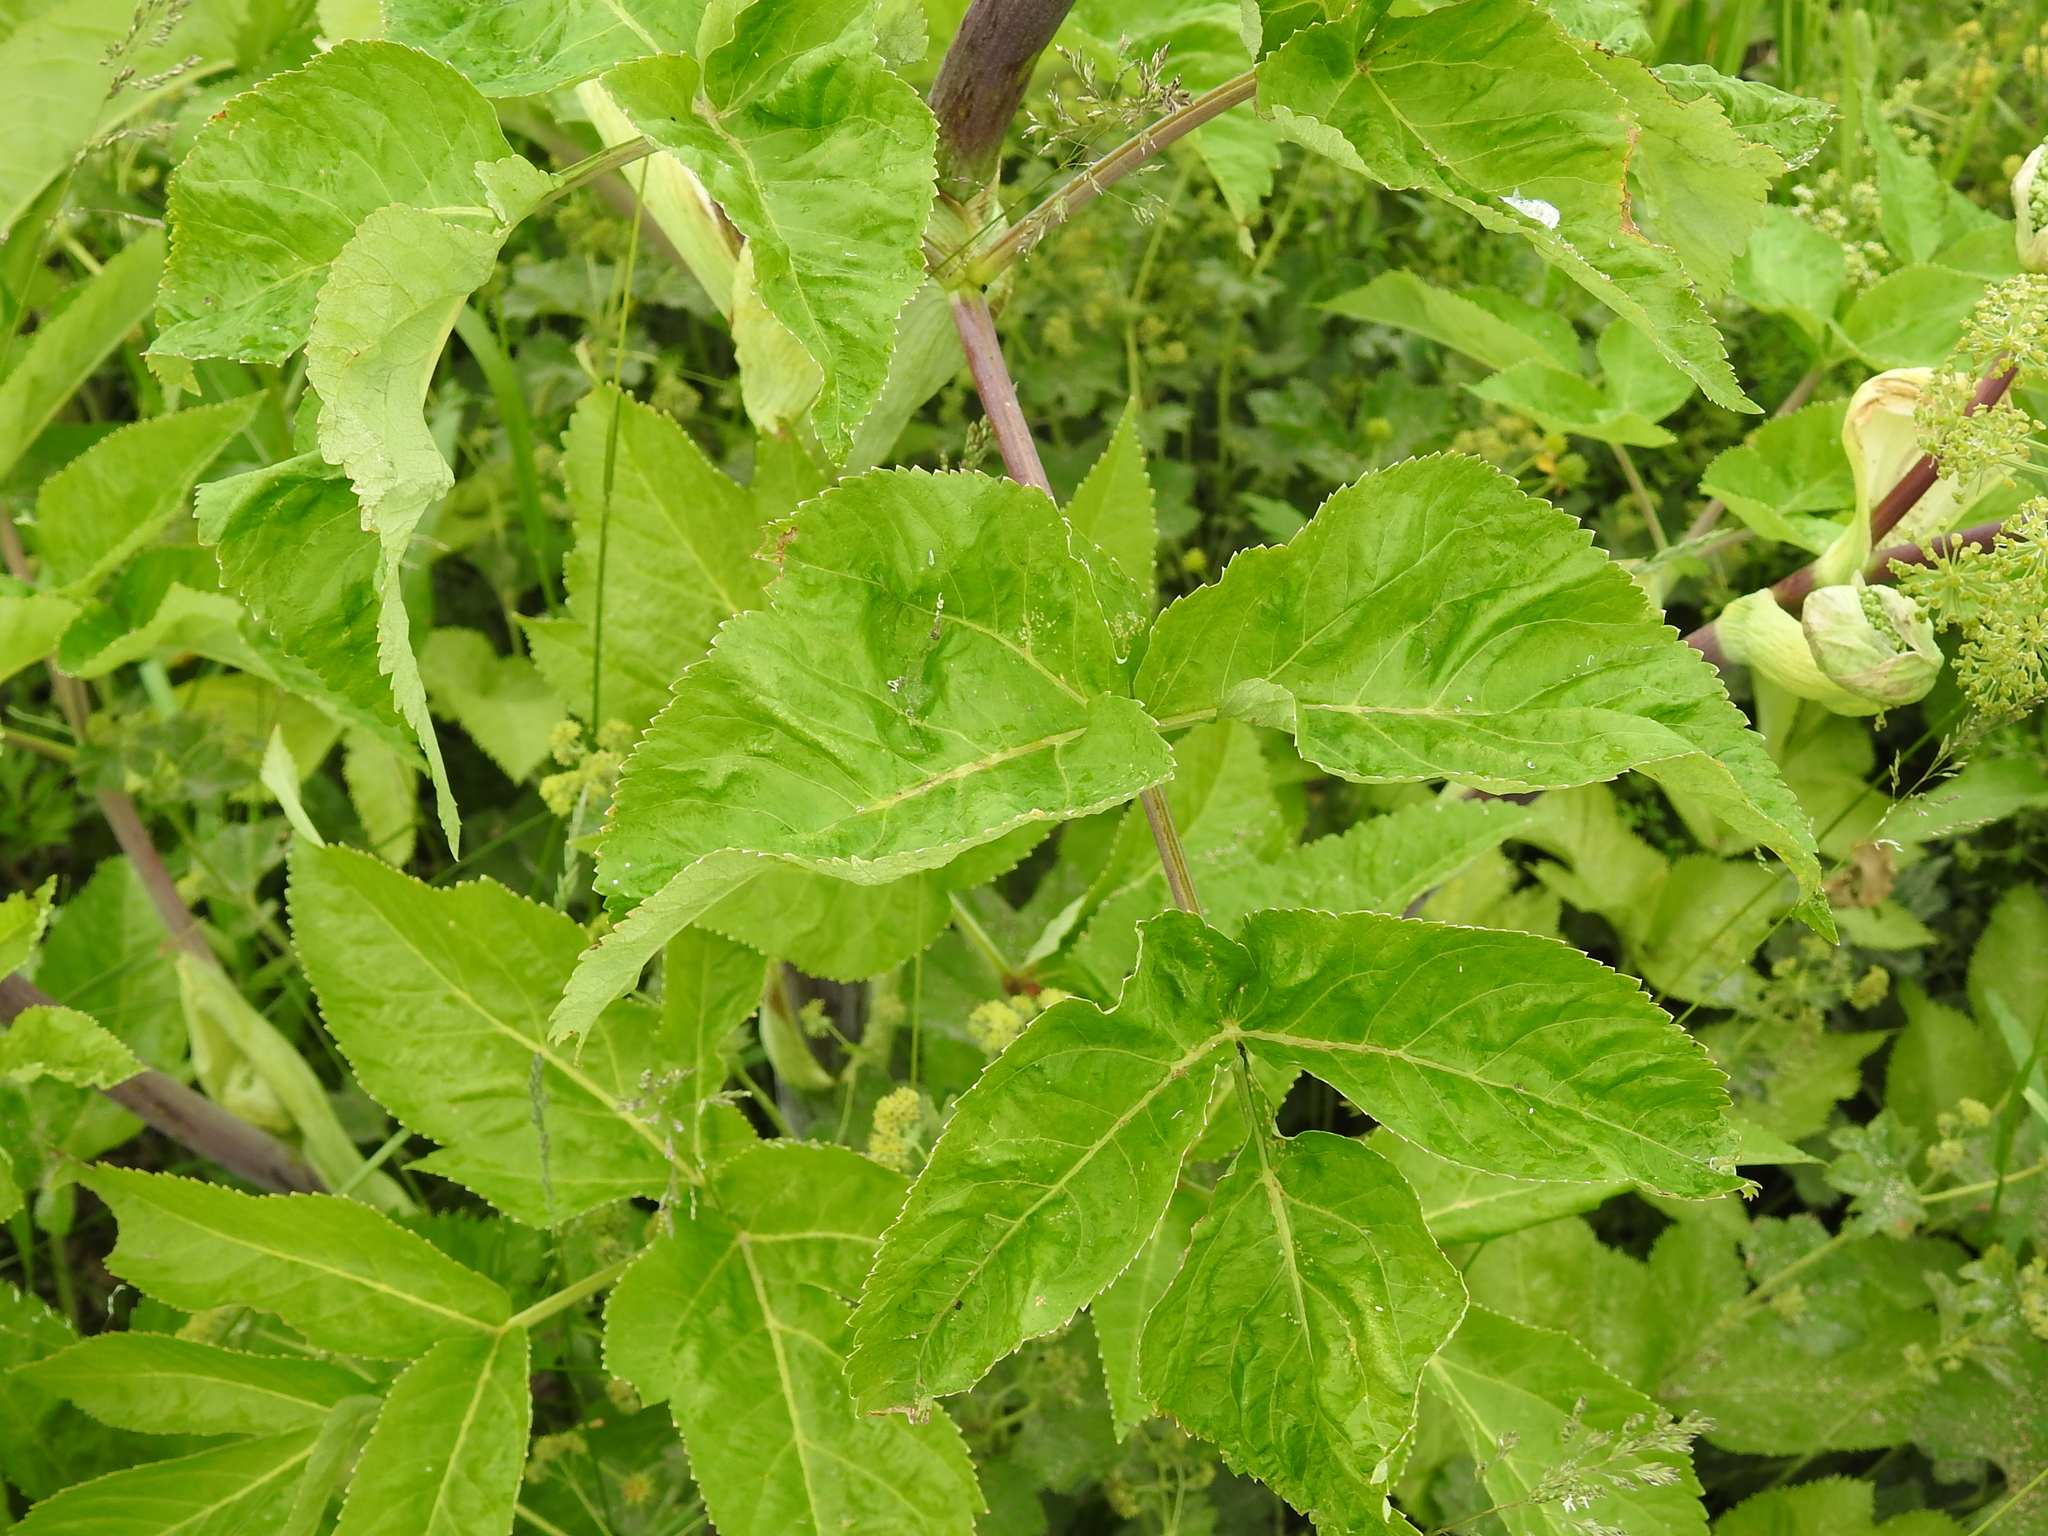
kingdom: Plantae
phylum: Tracheophyta
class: Magnoliopsida
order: Apiales
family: Apiaceae
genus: Angelica
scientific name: Angelica archangelica
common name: Garden angelica
